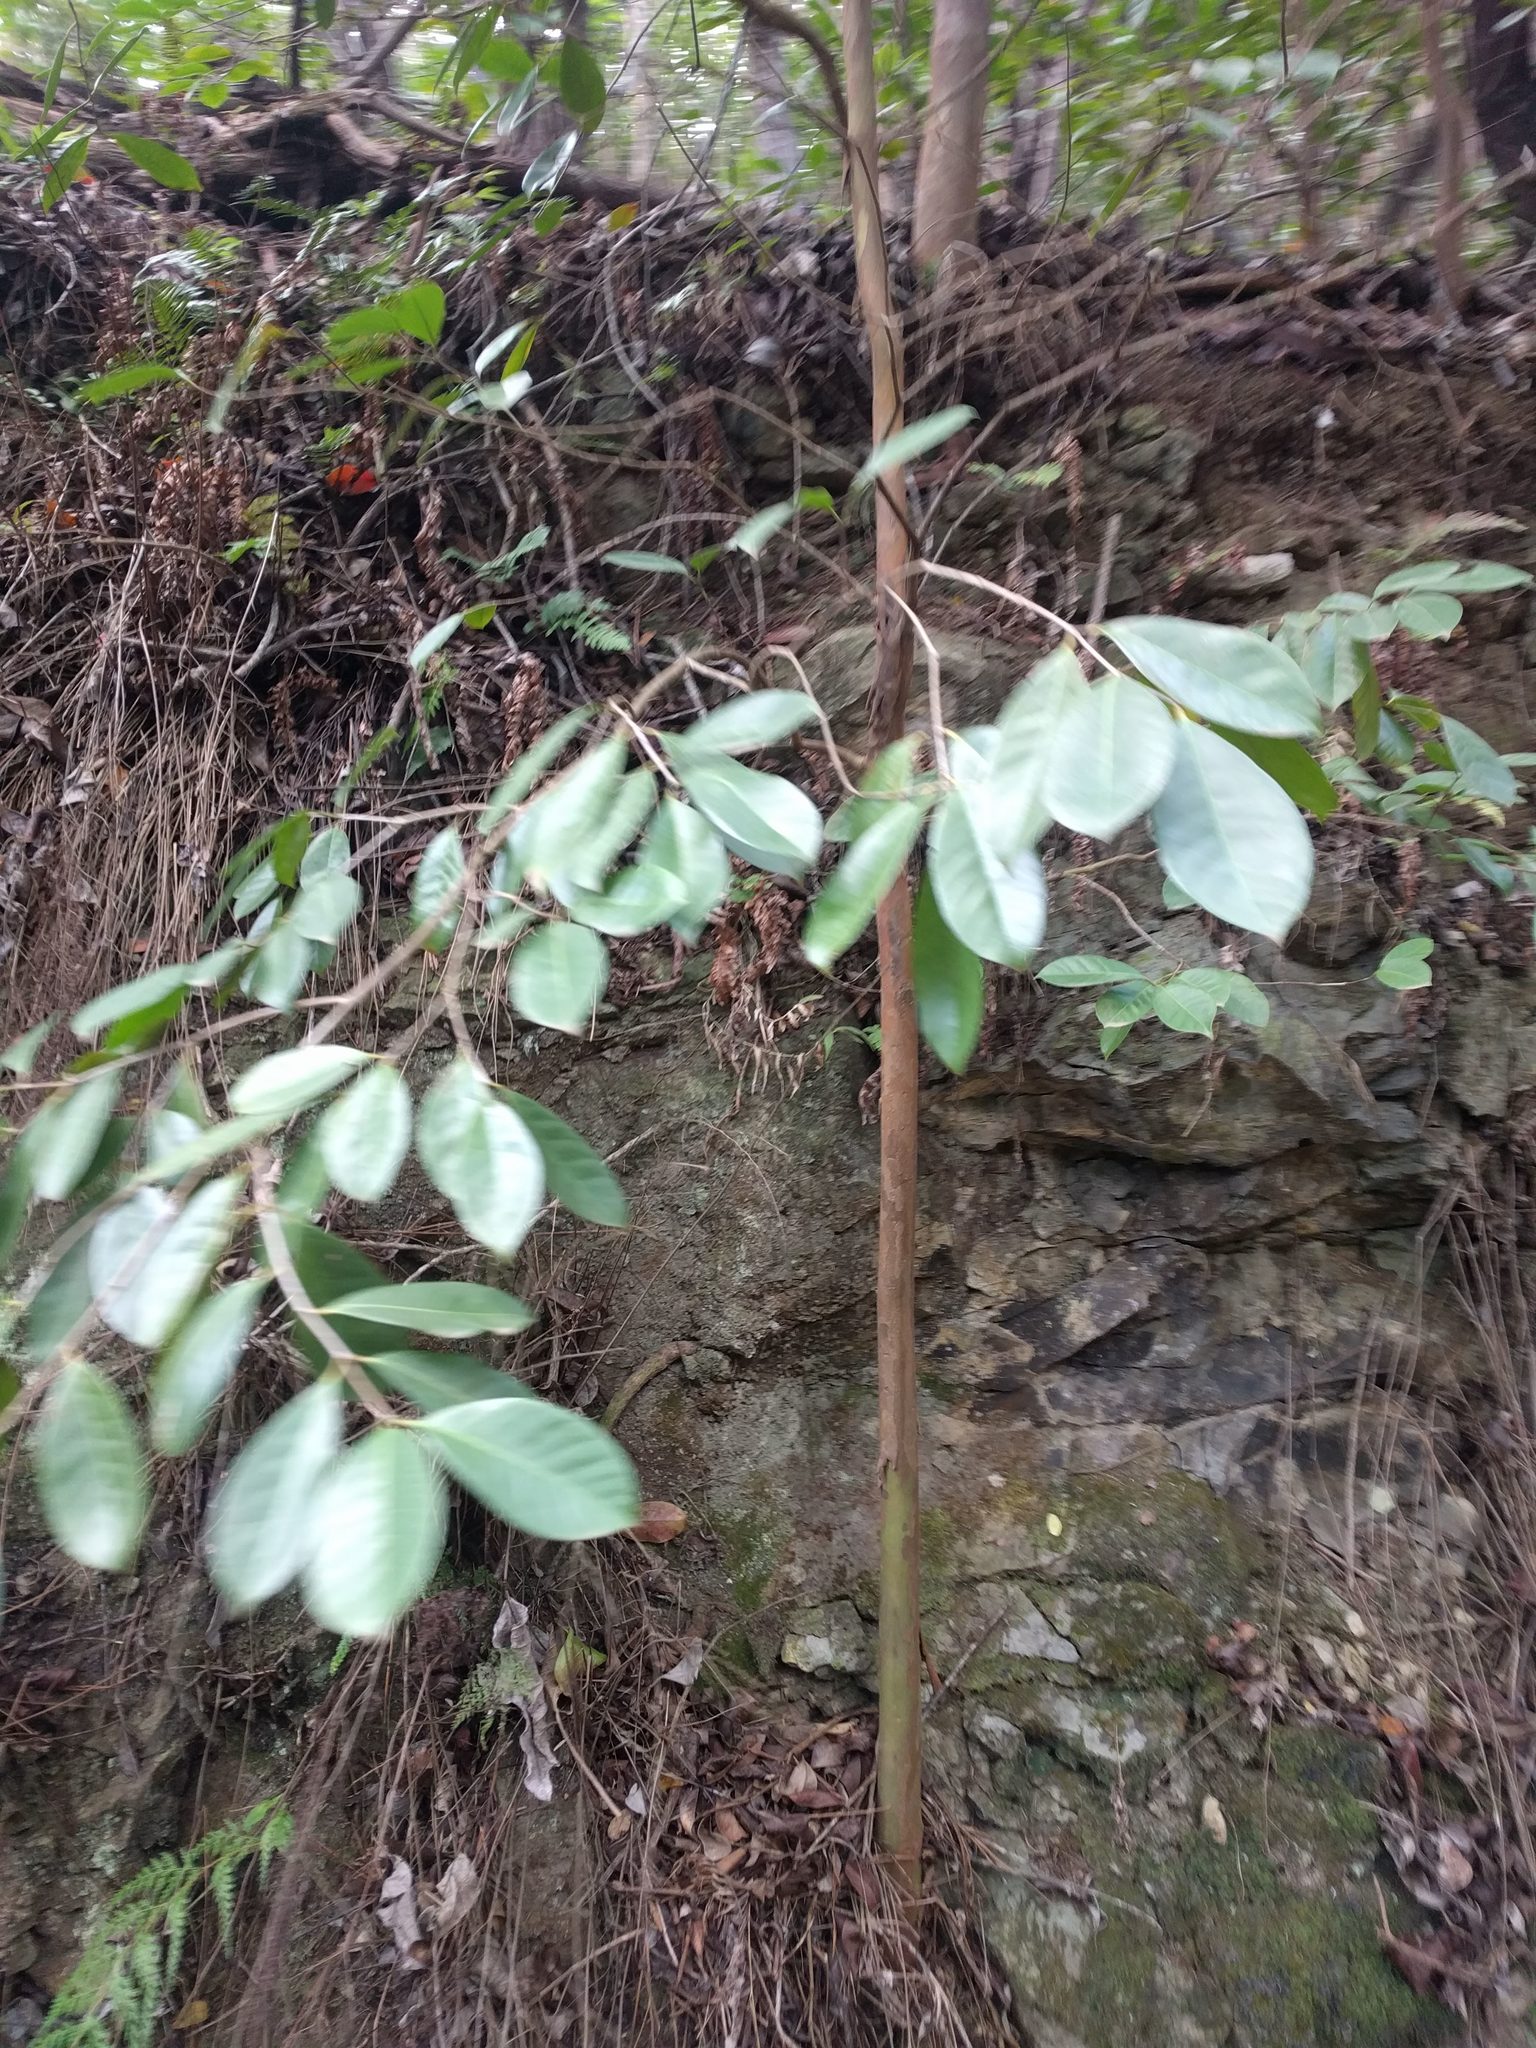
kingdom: Plantae
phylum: Tracheophyta
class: Magnoliopsida
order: Myrtales
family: Myrtaceae
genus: Psidium
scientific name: Psidium cattleianum
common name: Strawberry guava
